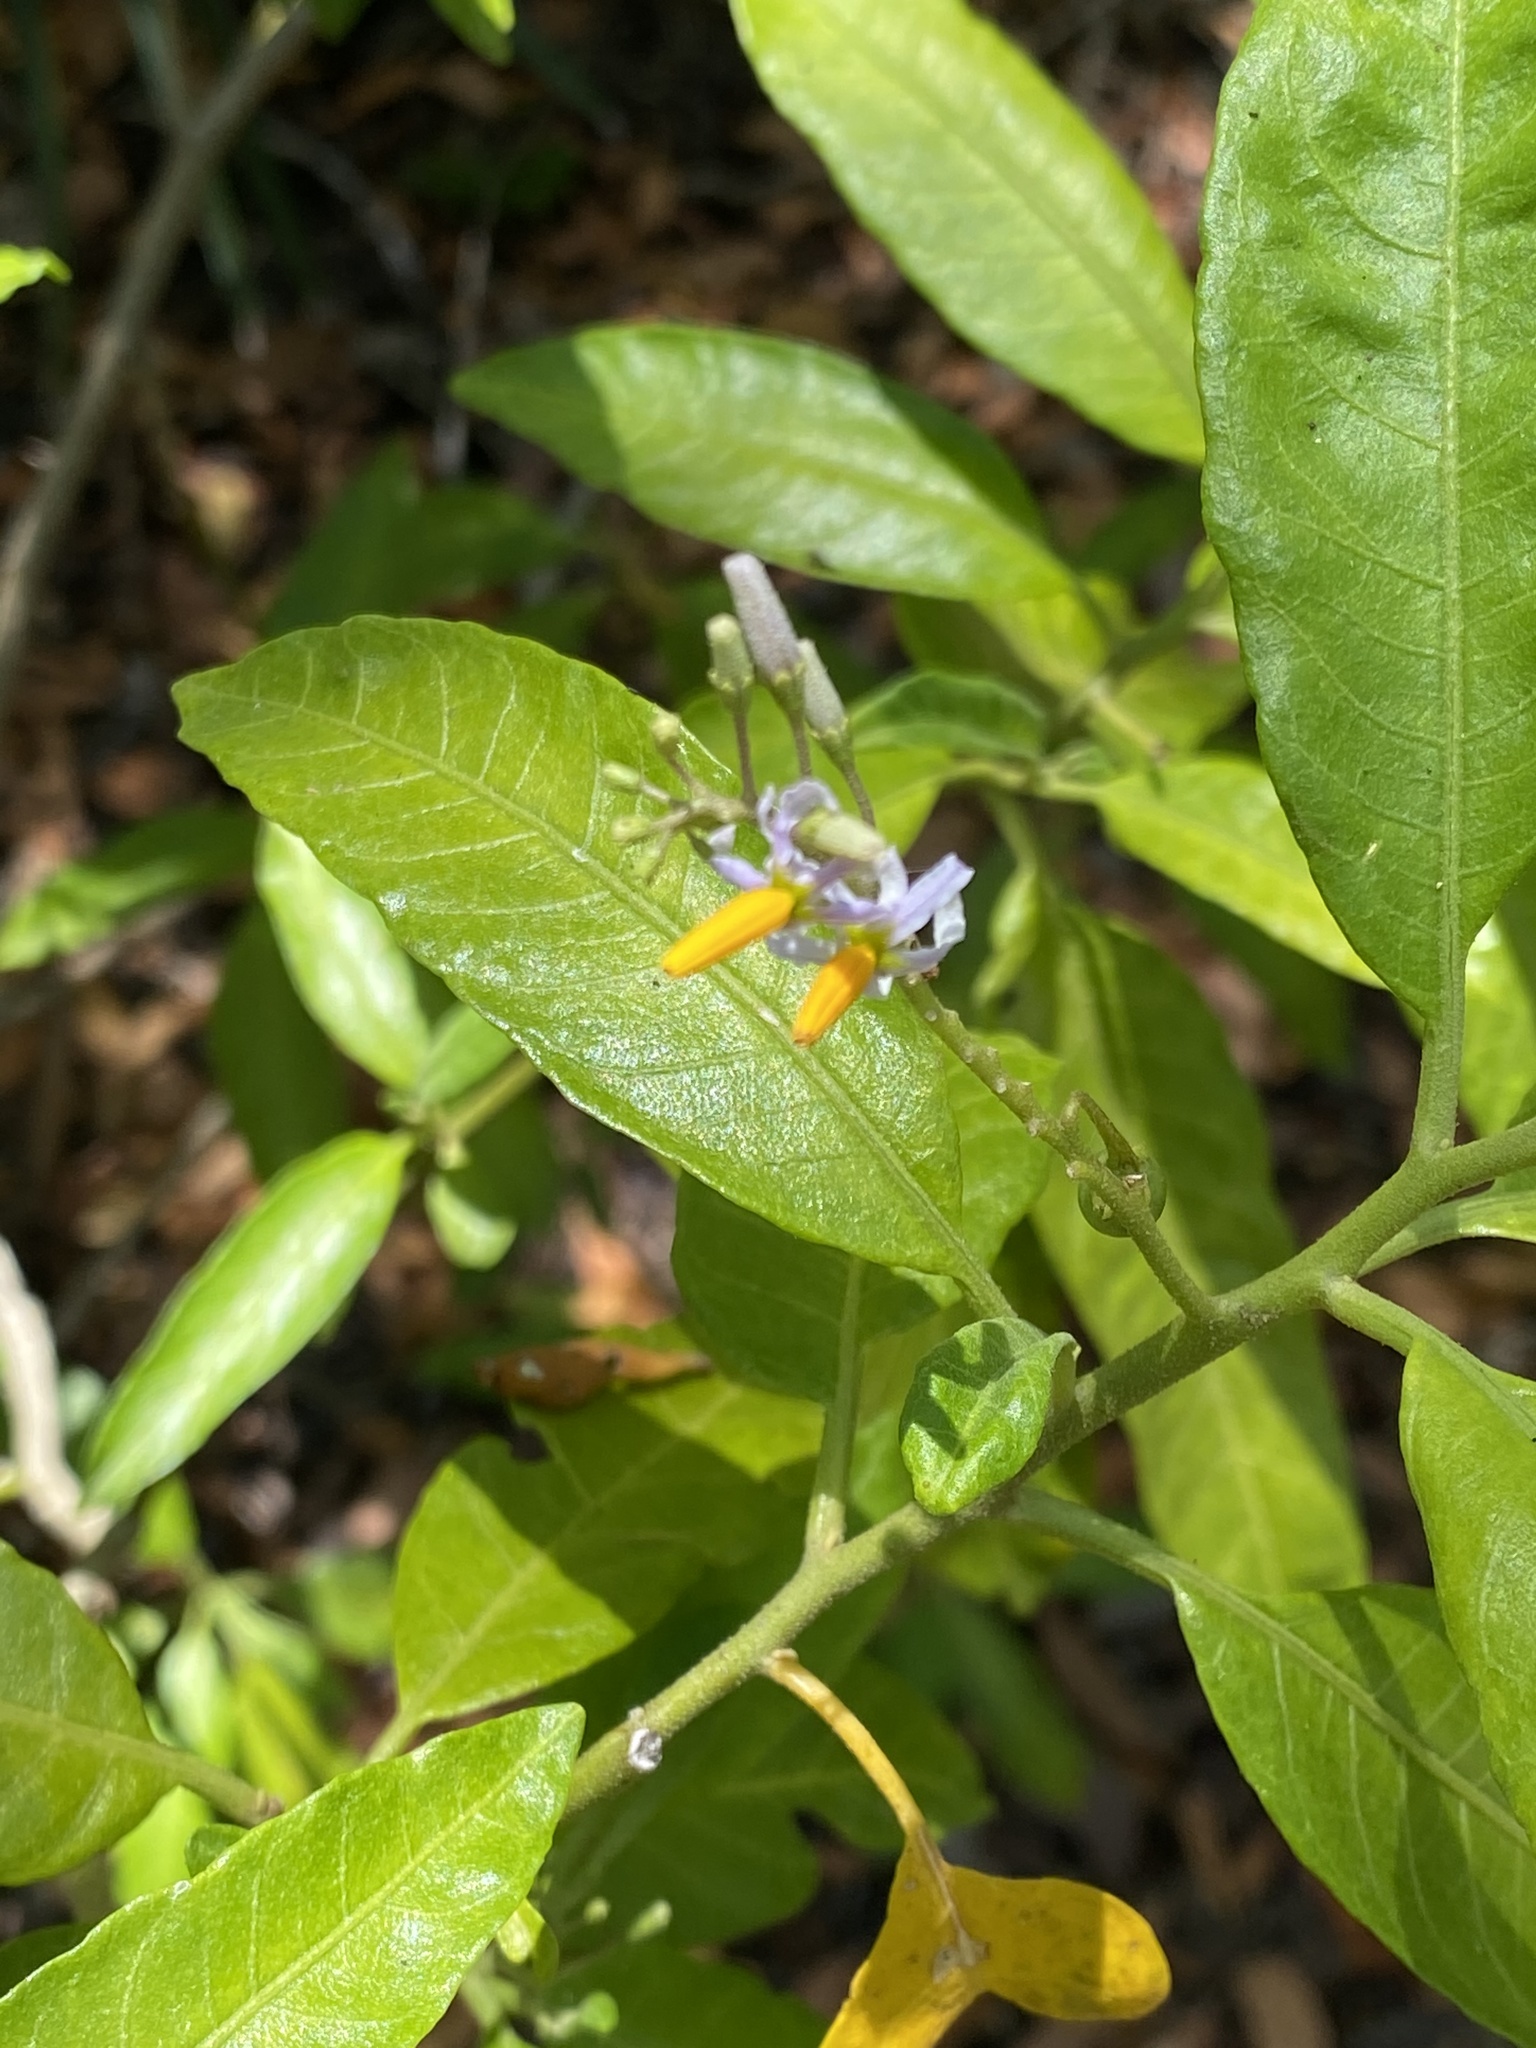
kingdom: Plantae
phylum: Tracheophyta
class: Magnoliopsida
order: Solanales
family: Solanaceae
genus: Solanum
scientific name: Solanum bahamense
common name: Canker-berry
